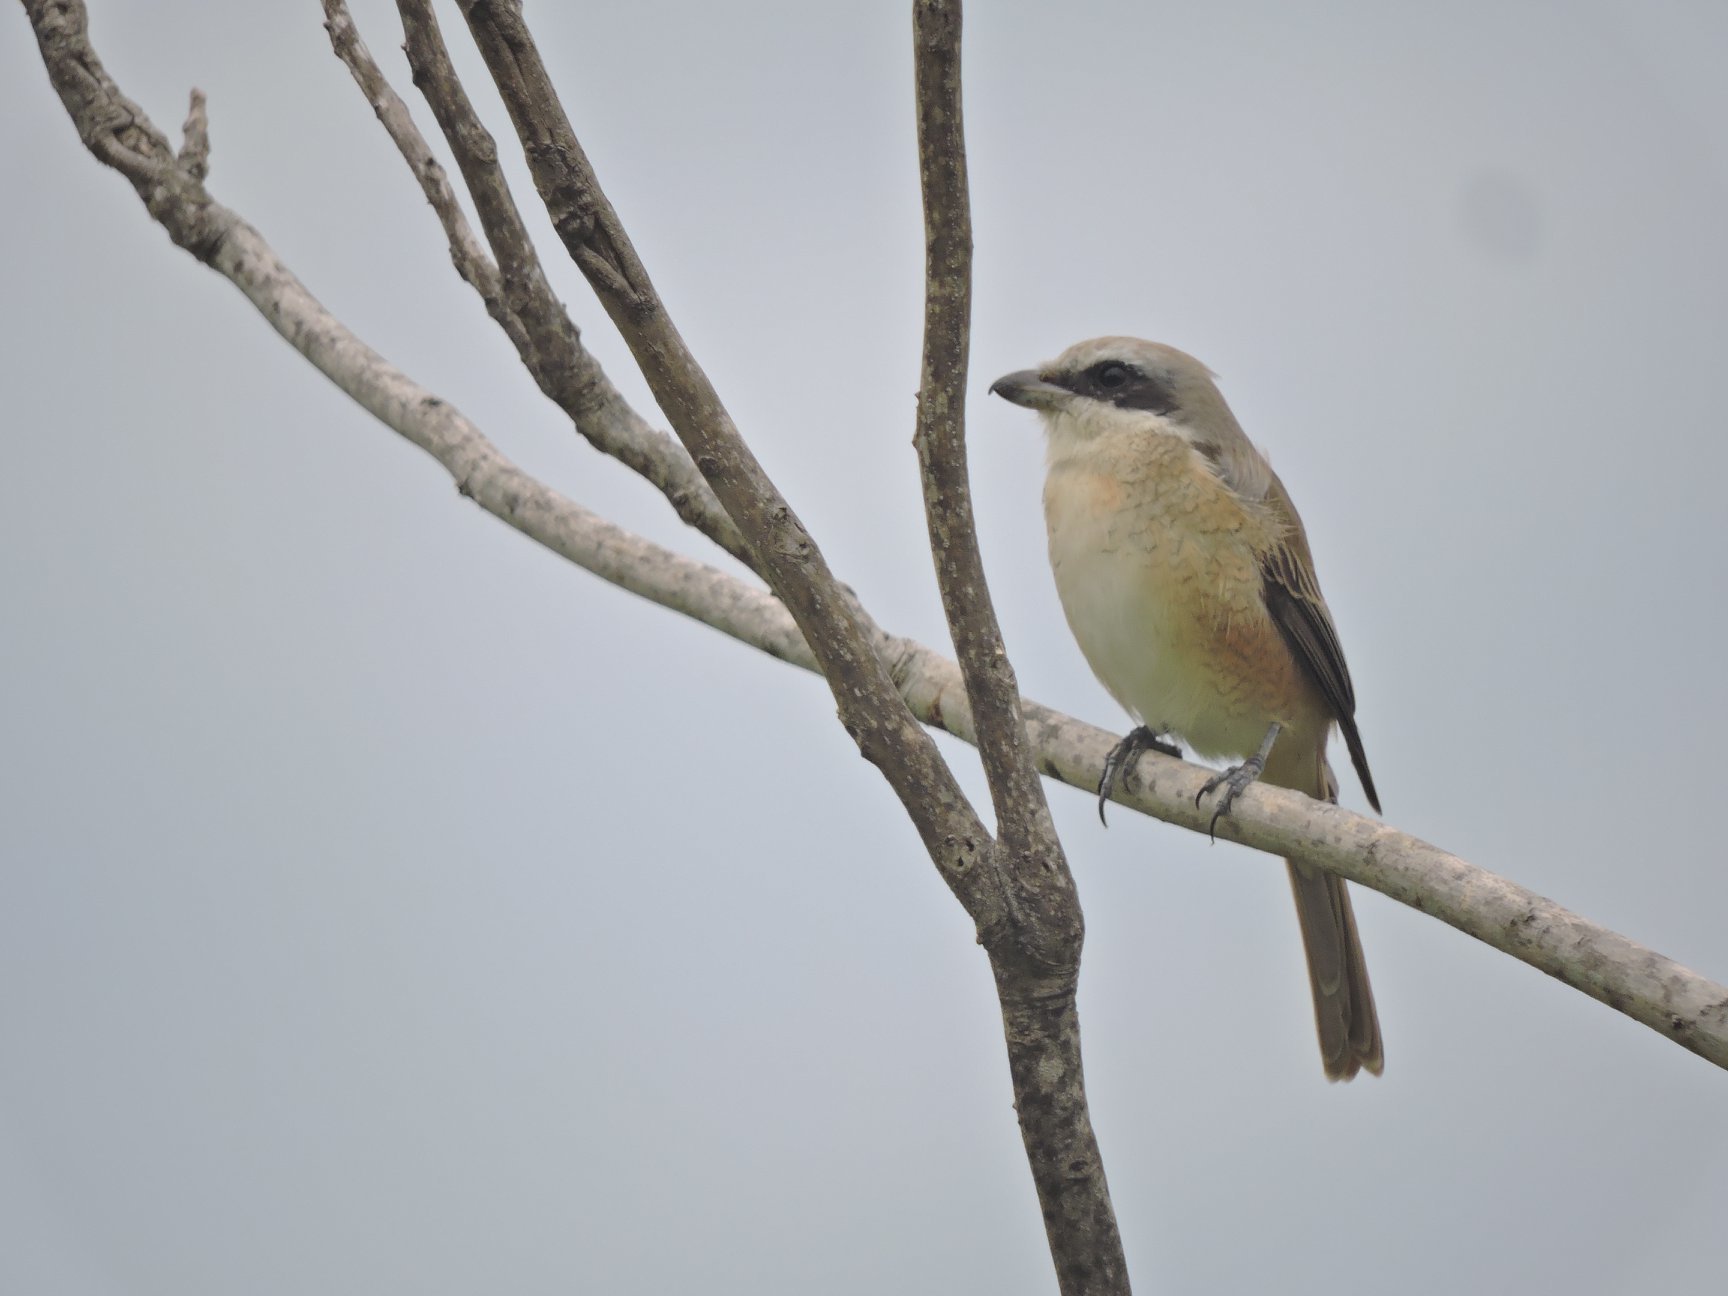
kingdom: Animalia
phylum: Chordata
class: Aves
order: Passeriformes
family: Laniidae
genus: Lanius
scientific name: Lanius cristatus
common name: Brown shrike
